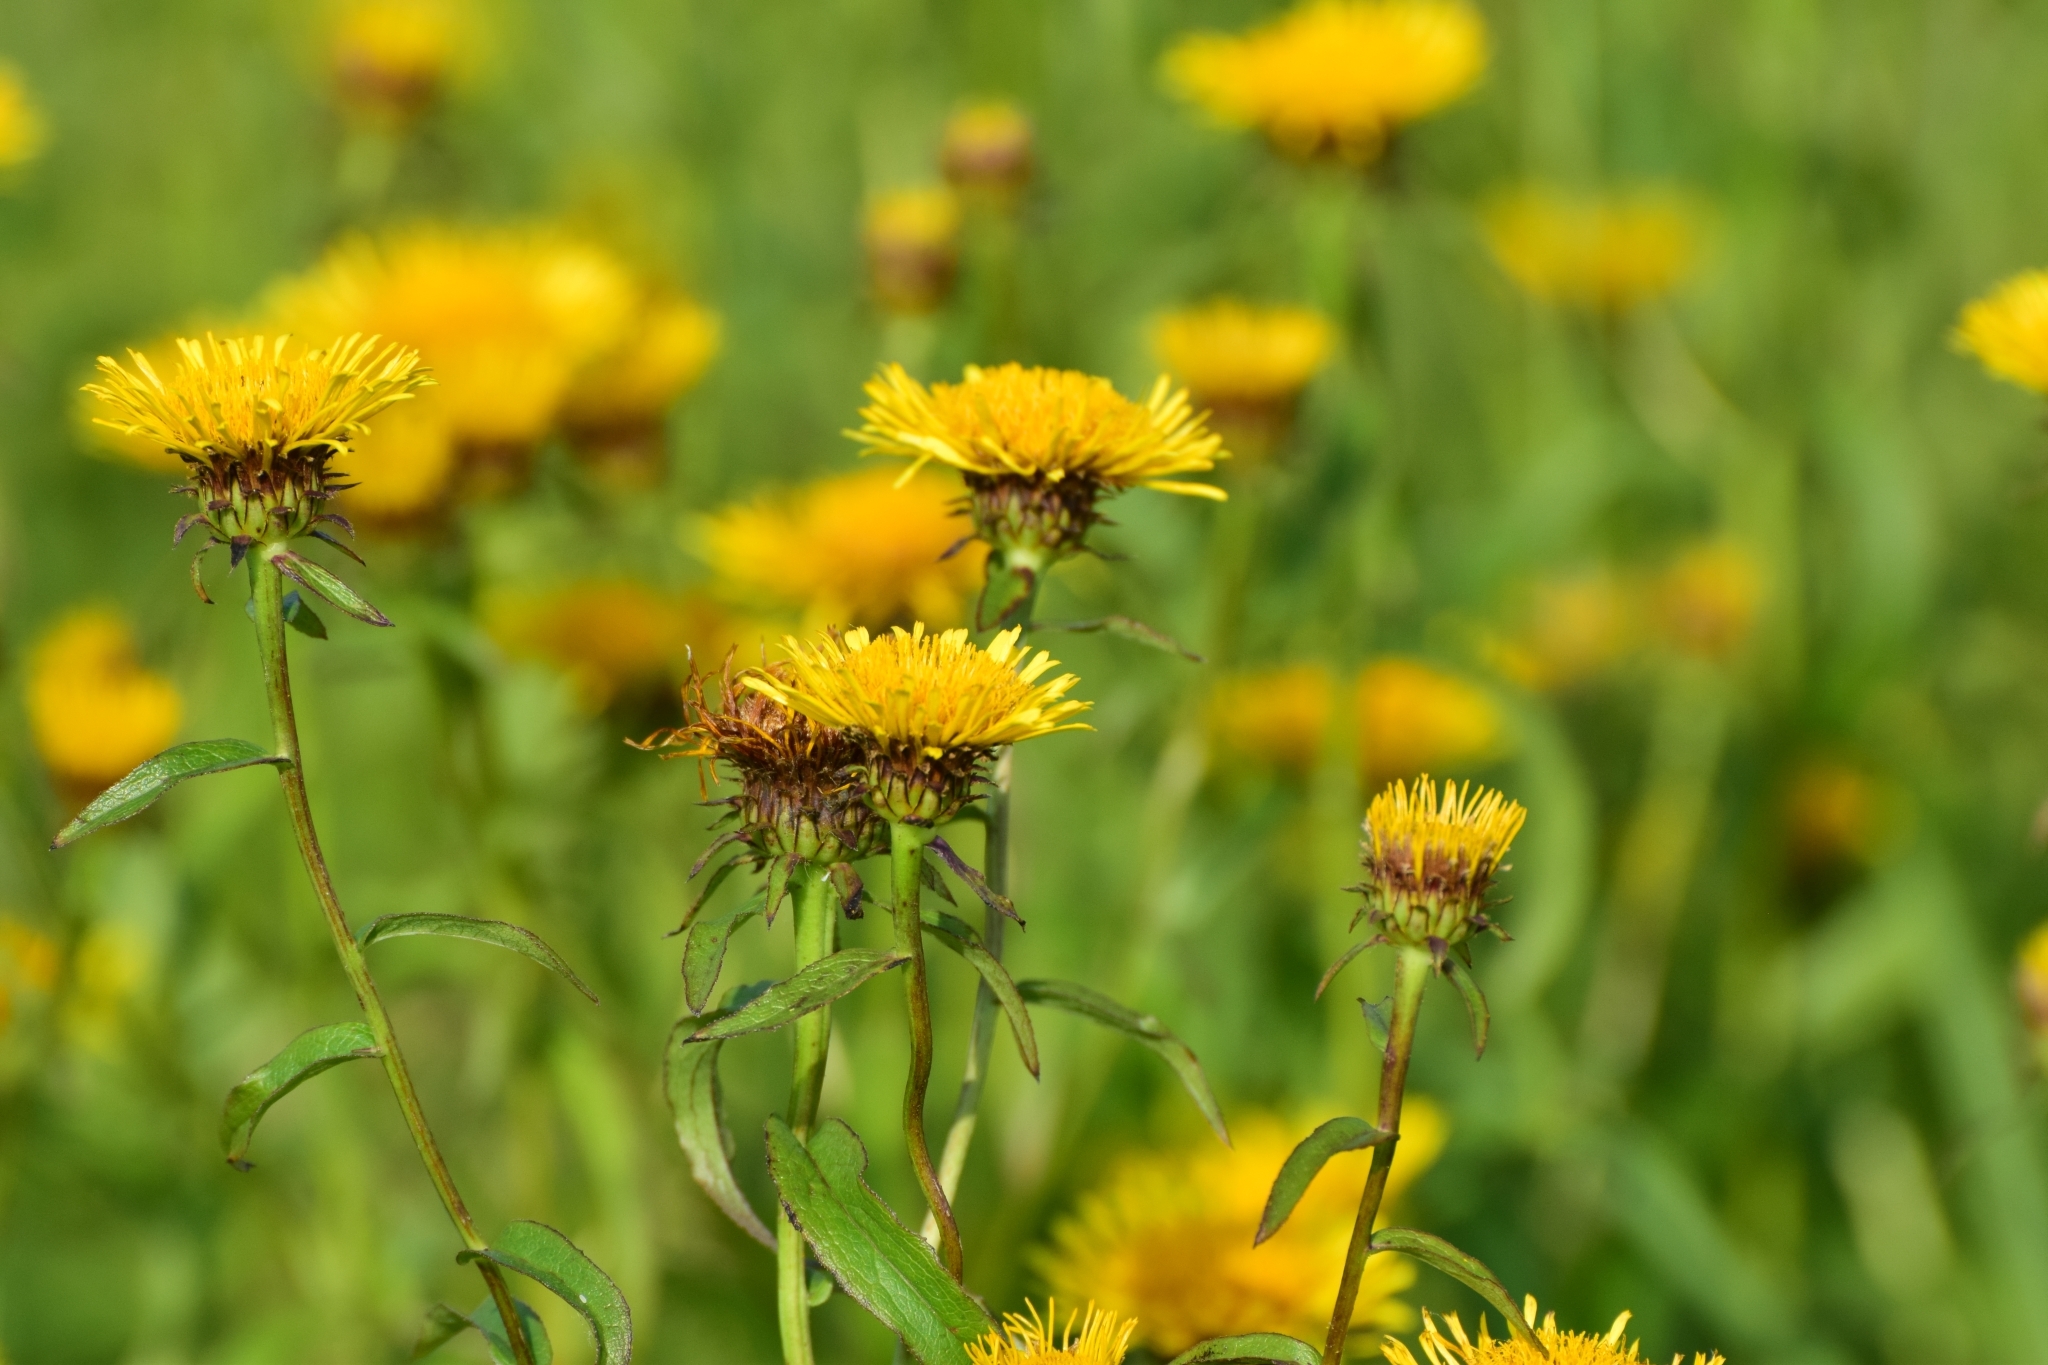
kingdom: Plantae
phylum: Tracheophyta
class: Magnoliopsida
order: Asterales
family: Asteraceae
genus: Pentanema
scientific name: Pentanema salicinum
